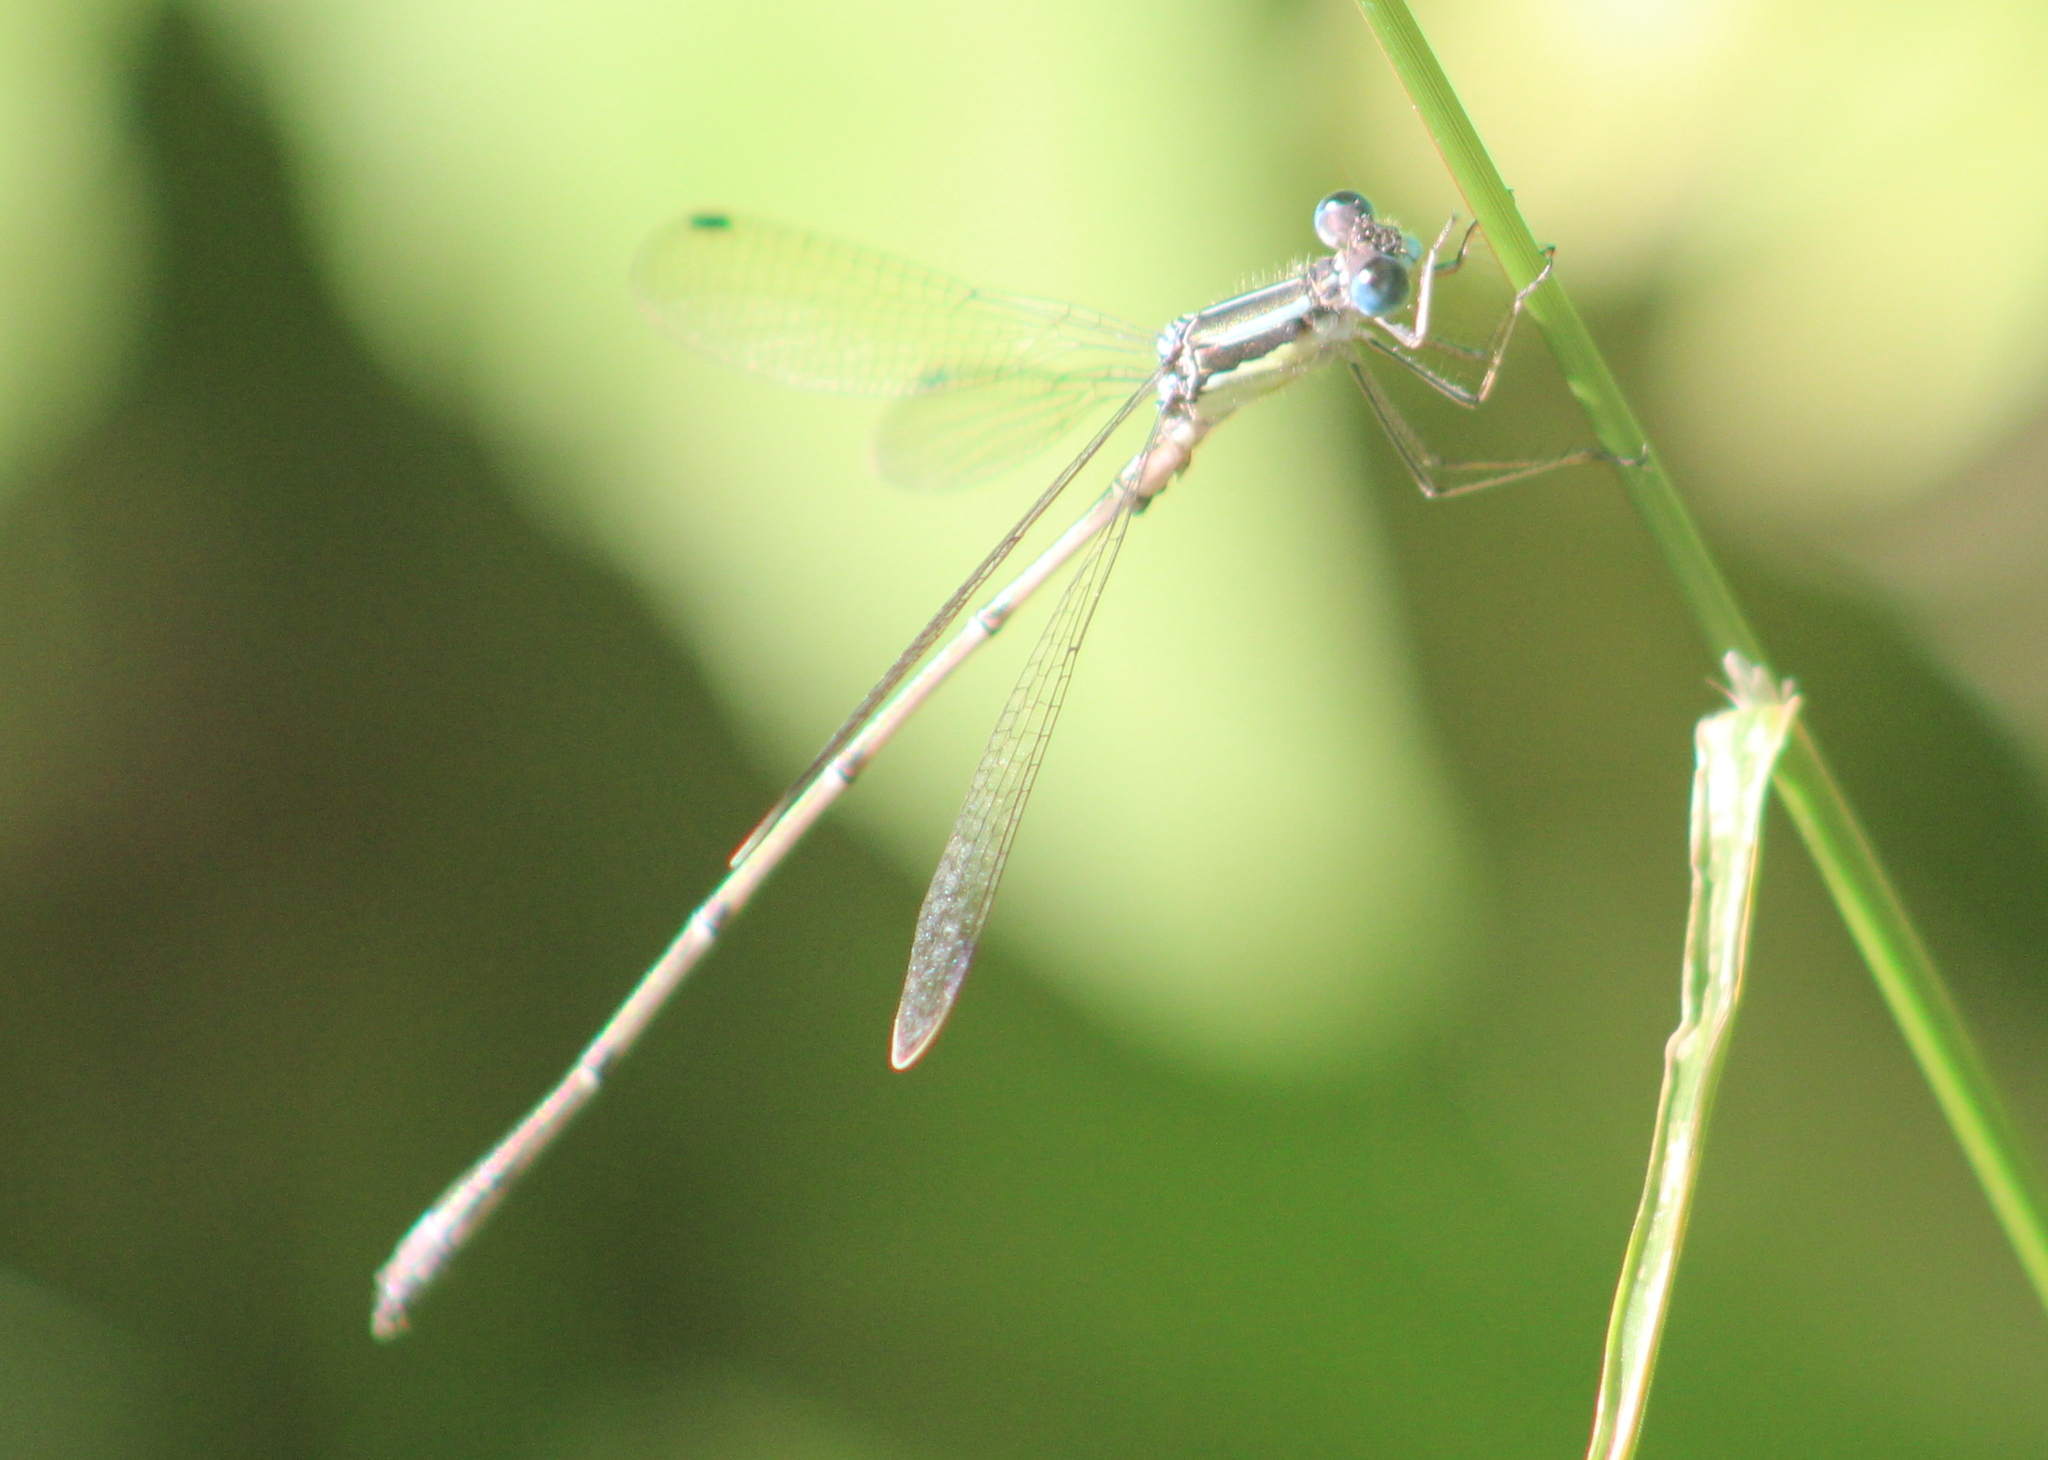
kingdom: Animalia
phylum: Arthropoda
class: Insecta
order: Odonata
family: Lestidae
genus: Lestes
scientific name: Lestes rectangularis
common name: Slender spreadwing
